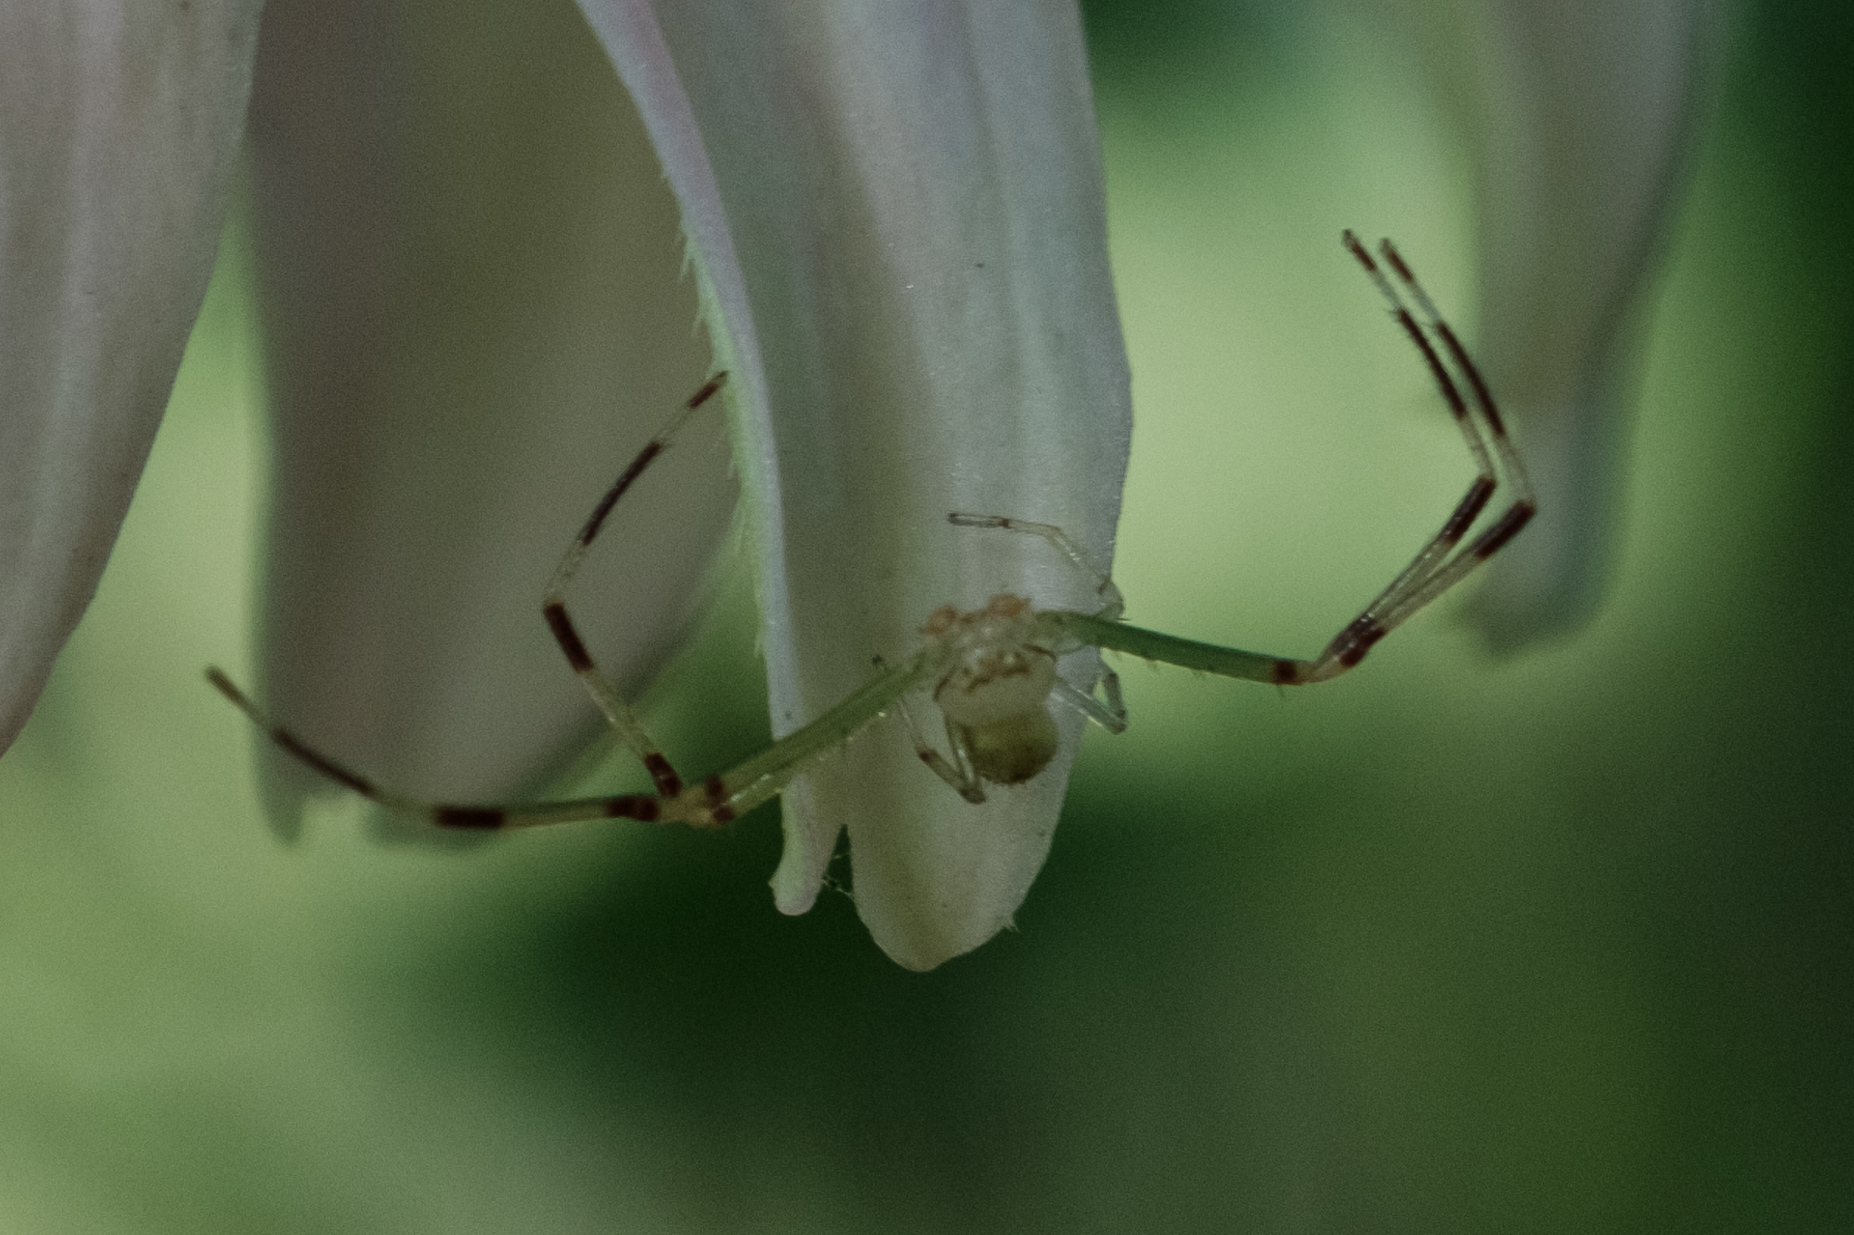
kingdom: Animalia
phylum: Arthropoda
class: Arachnida
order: Araneae
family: Thomisidae
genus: Misumessus
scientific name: Misumessus oblongus
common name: American green crab spider
